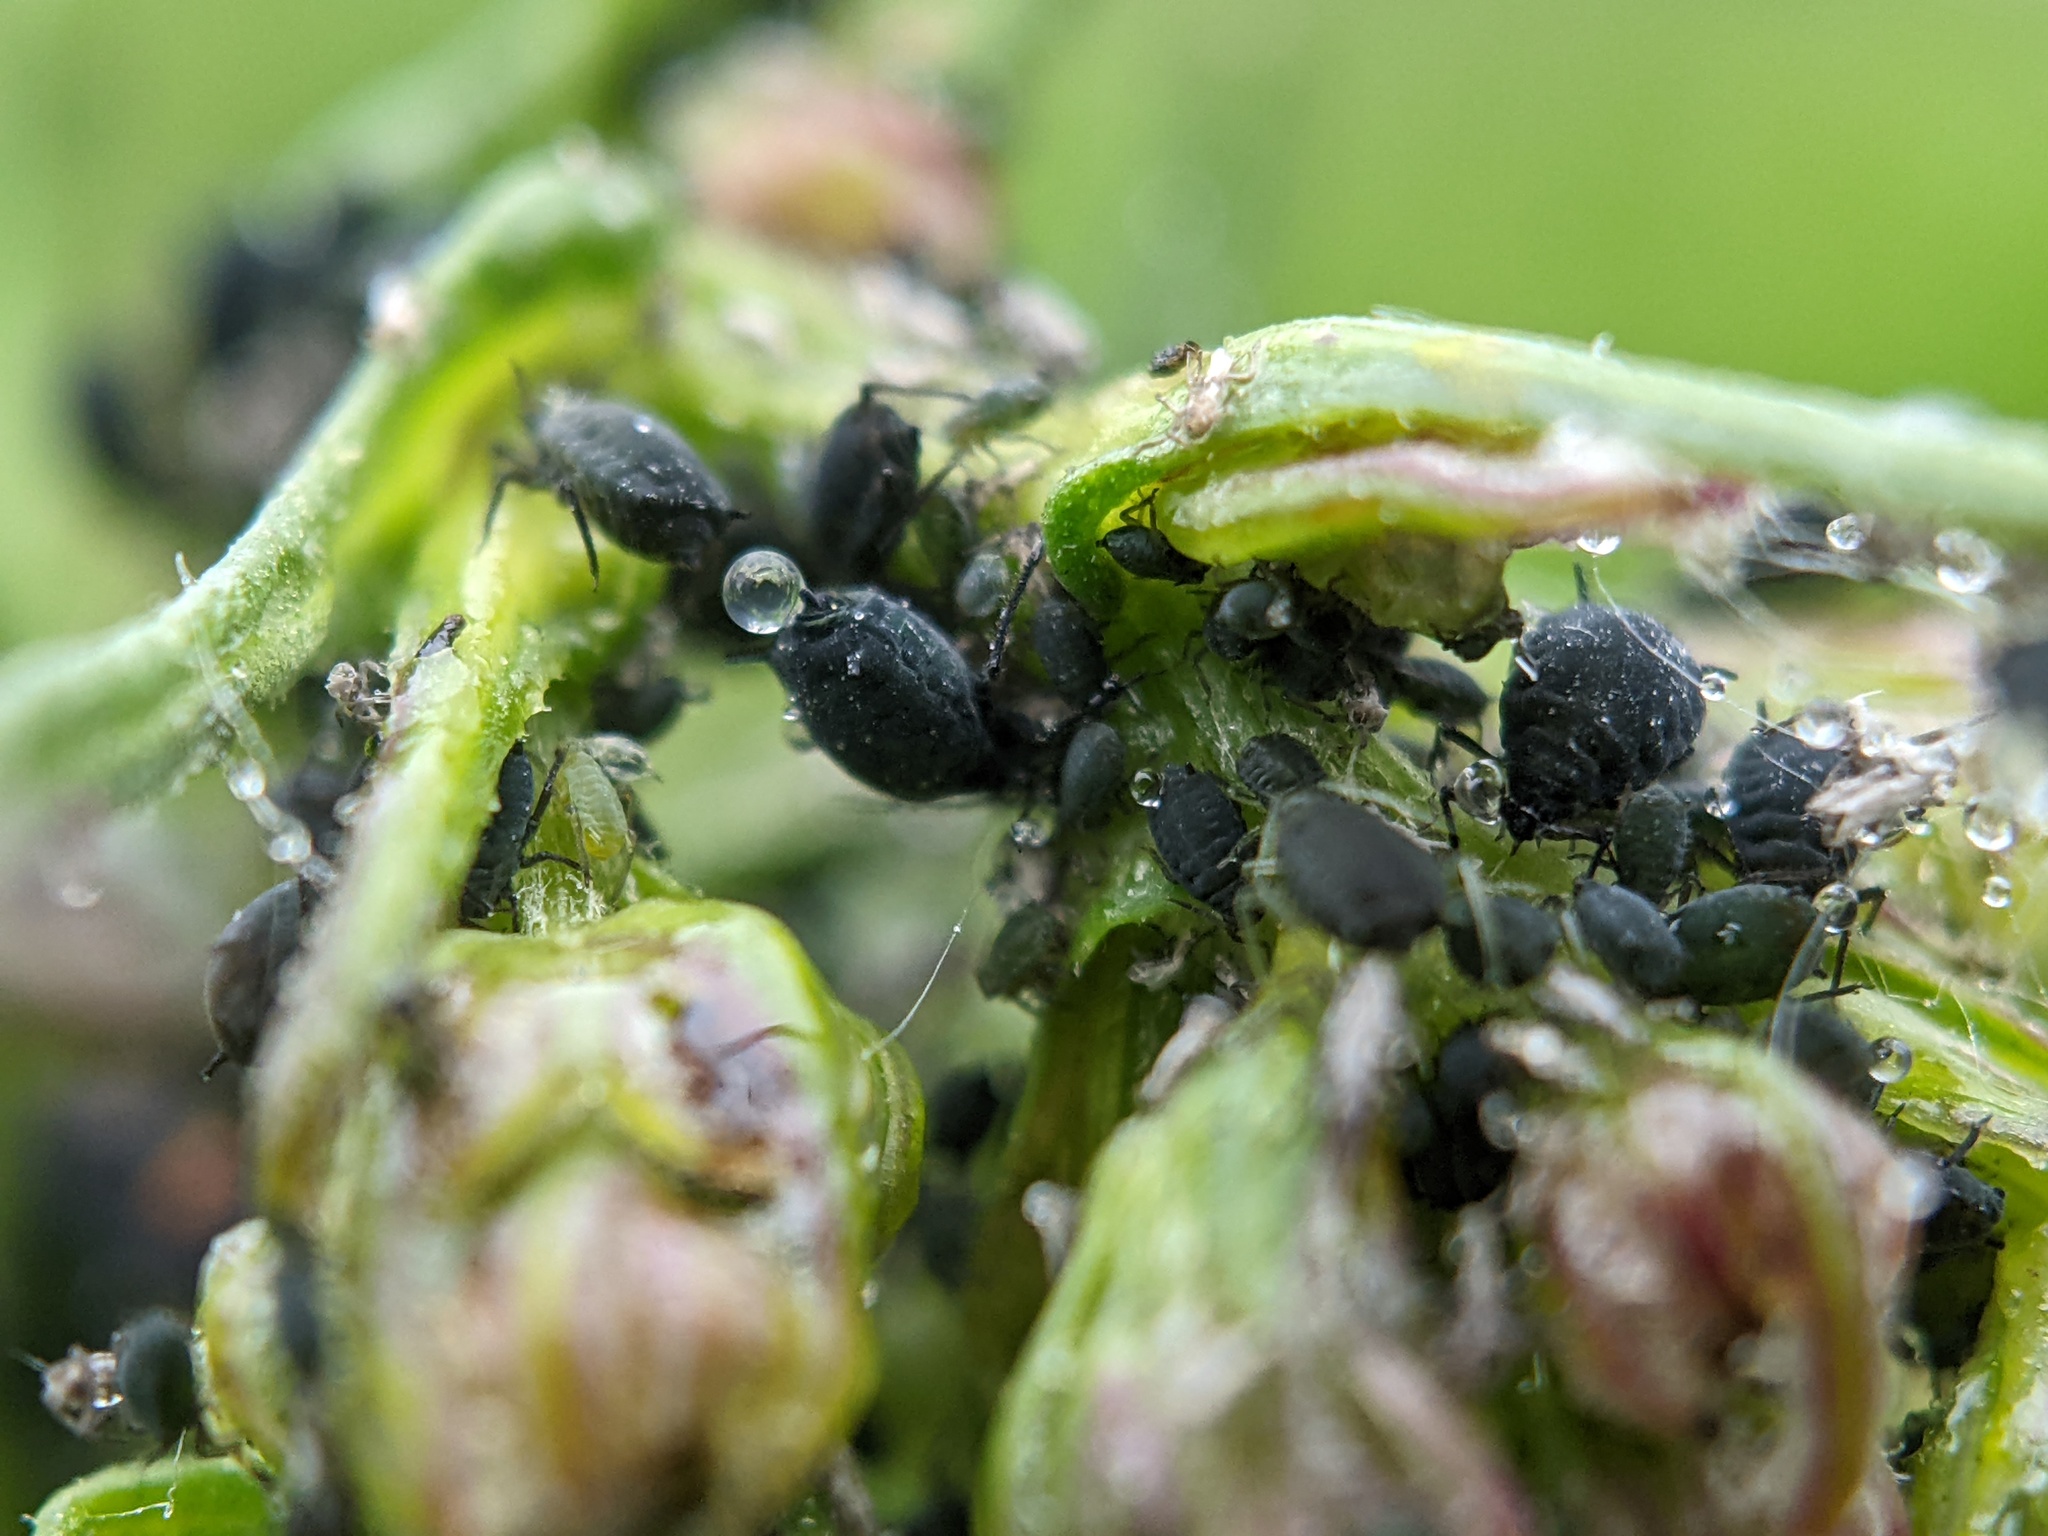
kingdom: Animalia
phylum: Arthropoda
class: Insecta
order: Hemiptera
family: Aphididae
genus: Aphis
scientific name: Aphis fabae
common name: Bean aphid
